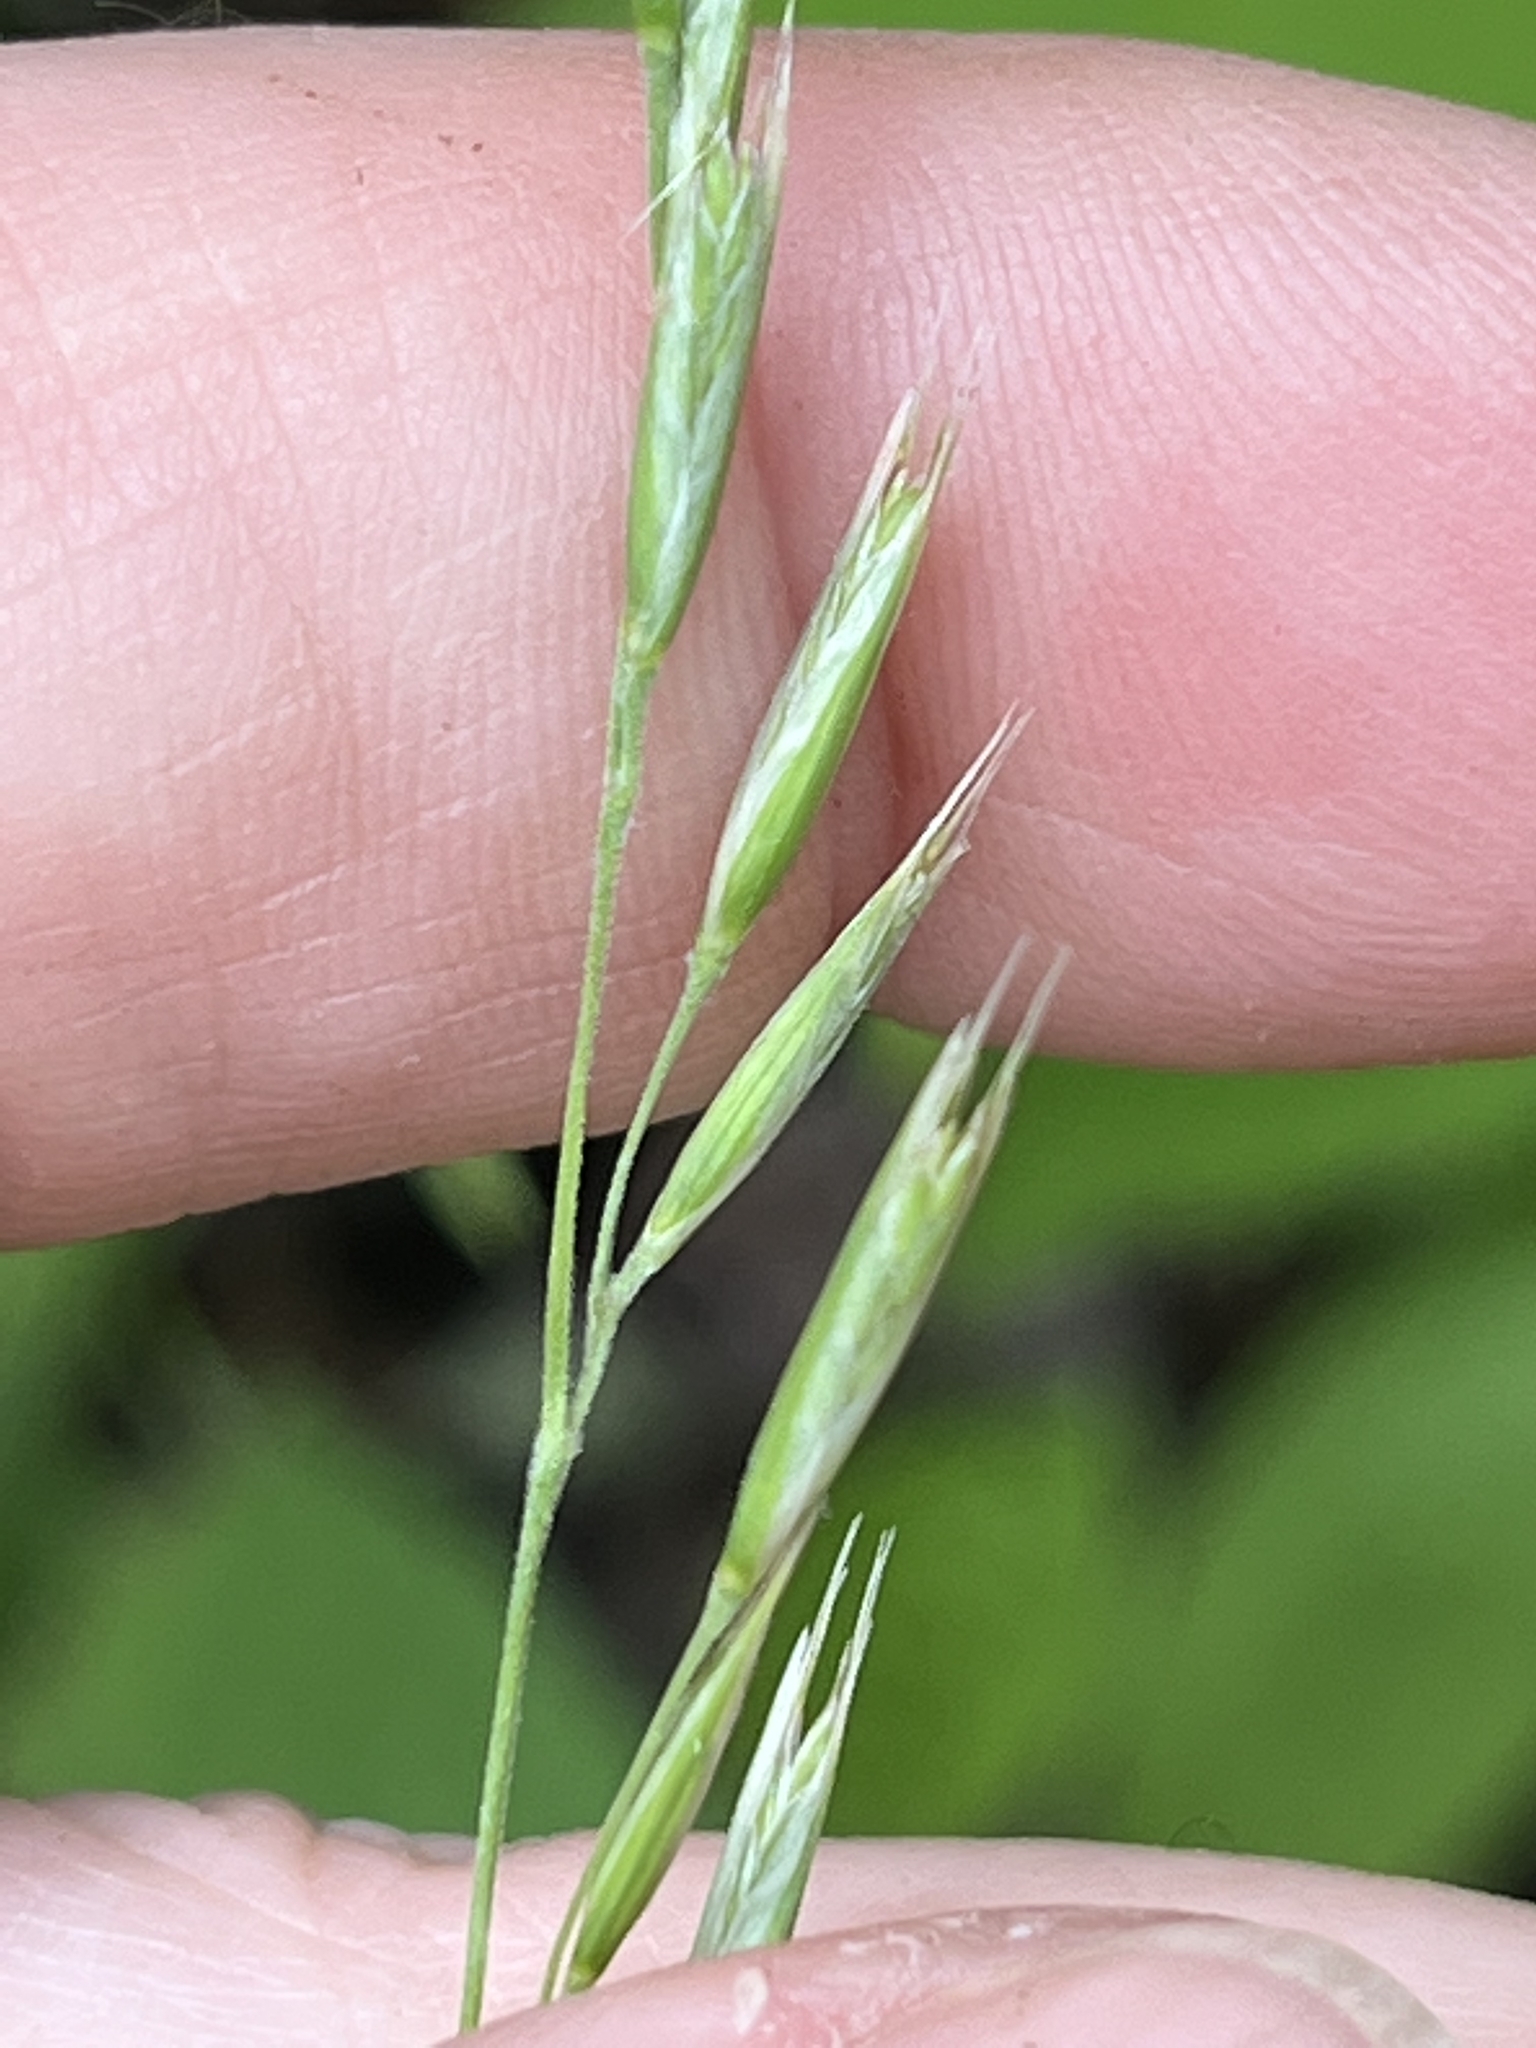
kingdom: Plantae
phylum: Tracheophyta
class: Liliopsida
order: Poales
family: Poaceae
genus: Danthonia
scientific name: Danthonia spicata
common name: Common wild oatgrass
